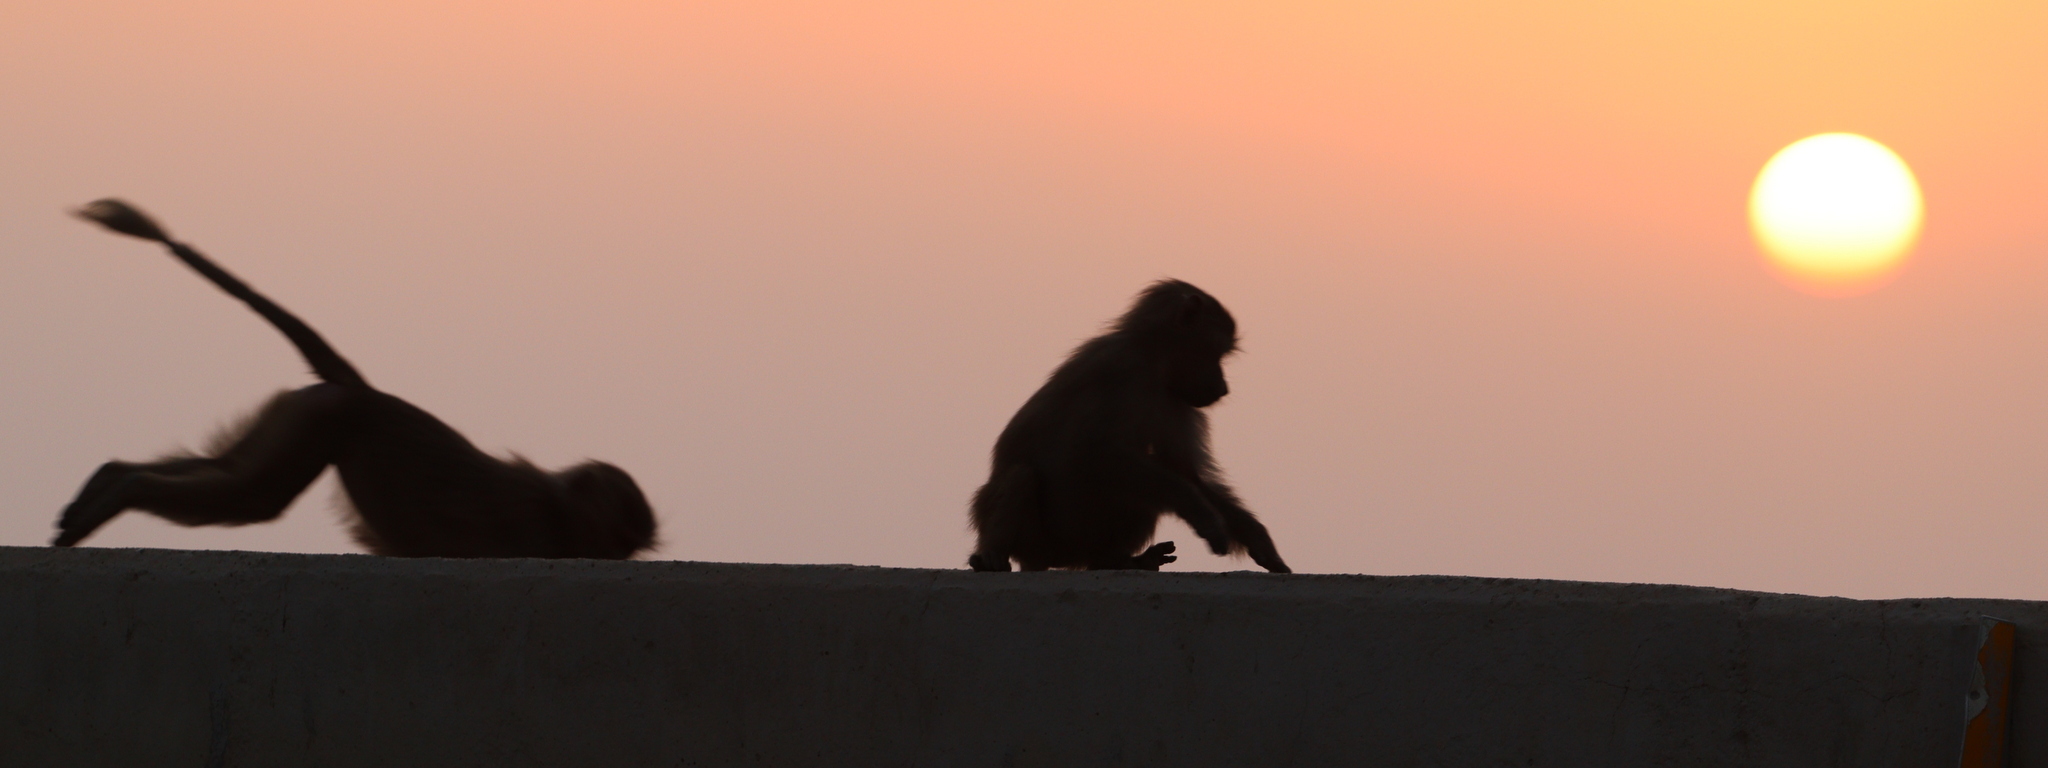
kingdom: Animalia
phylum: Chordata
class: Mammalia
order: Primates
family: Cercopithecidae
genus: Papio
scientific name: Papio hamadryas
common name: Hamadryas baboon
